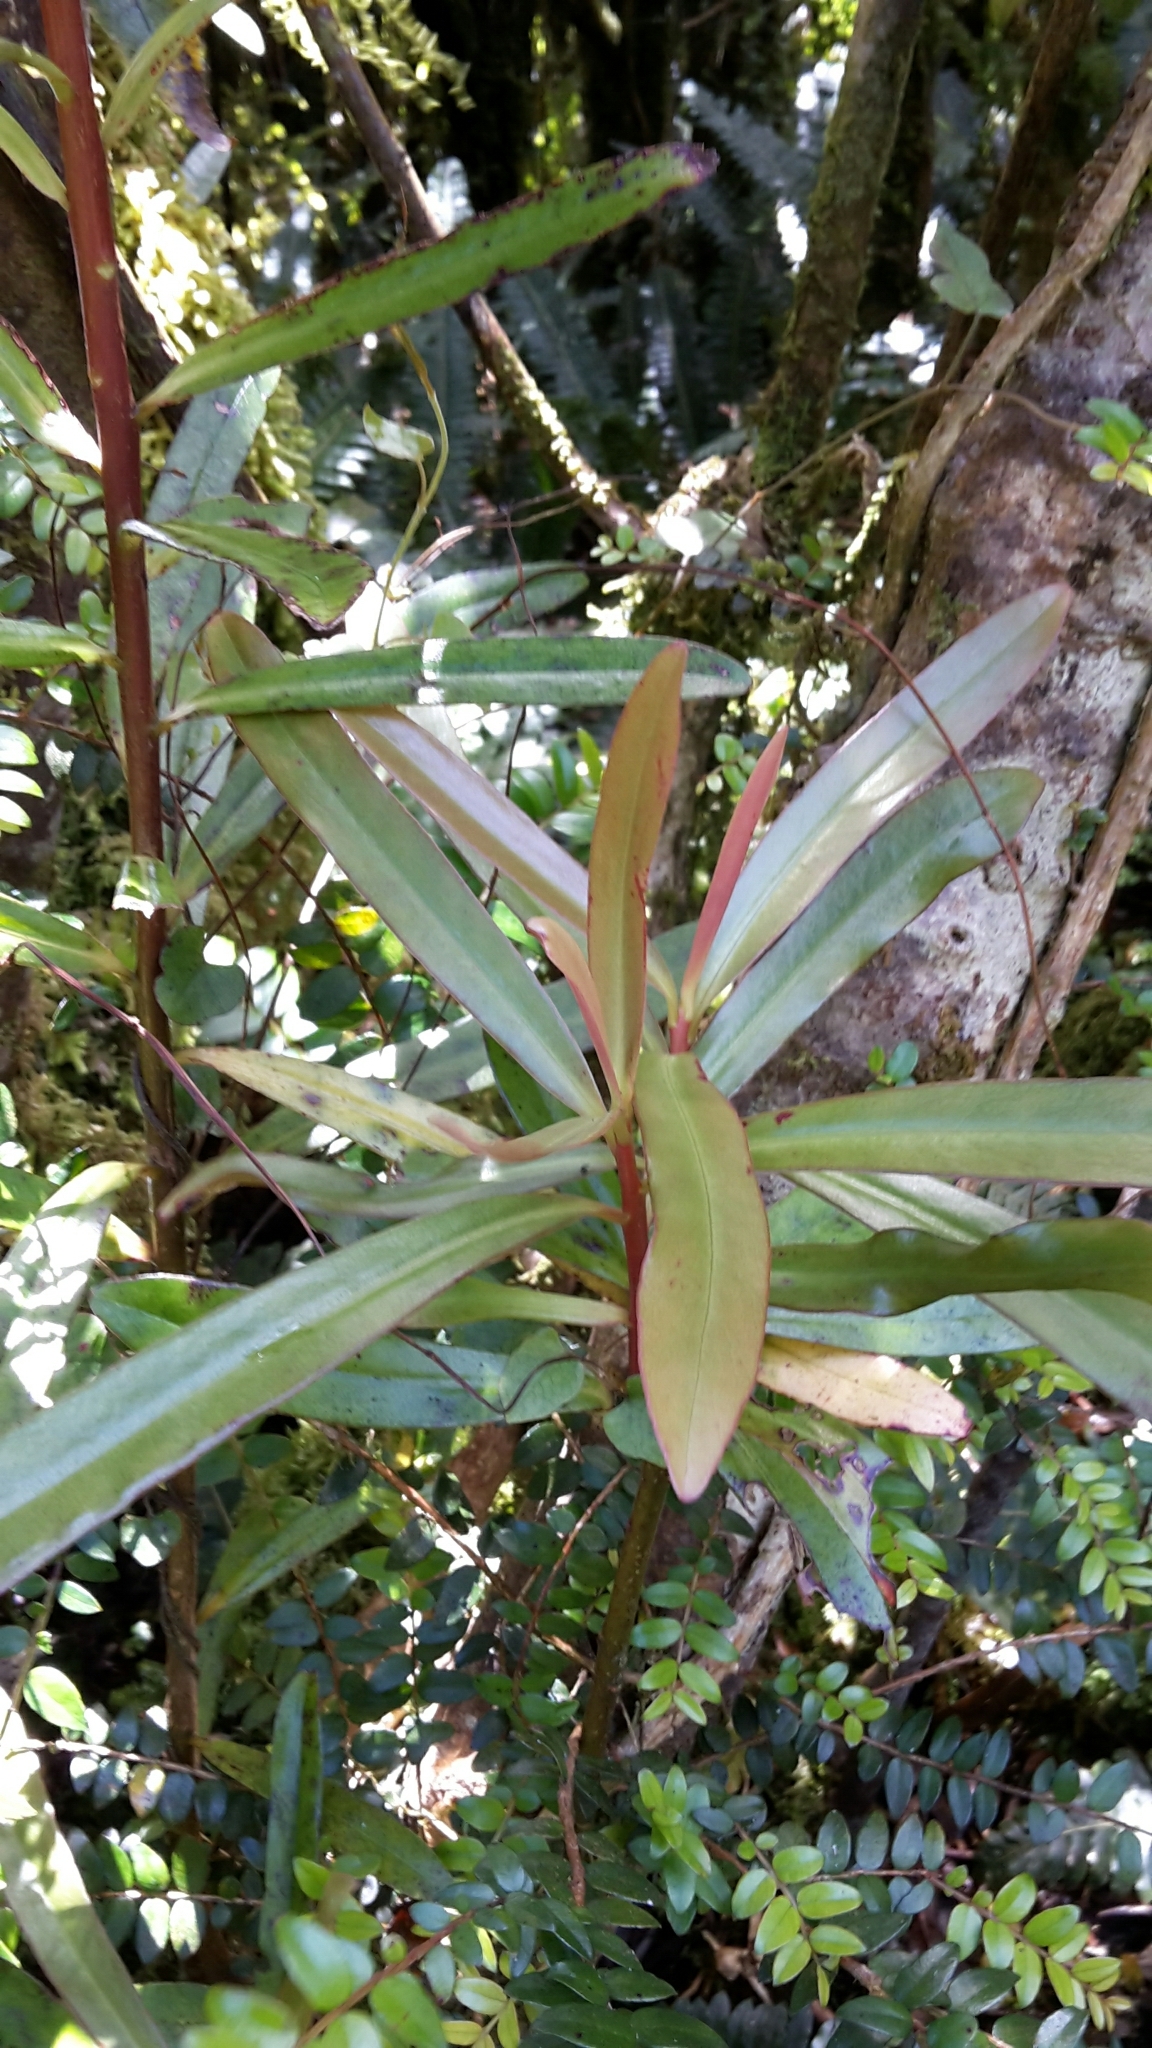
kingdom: Plantae
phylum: Tracheophyta
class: Magnoliopsida
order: Ericales
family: Primulaceae
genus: Myrsine
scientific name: Myrsine salicina
